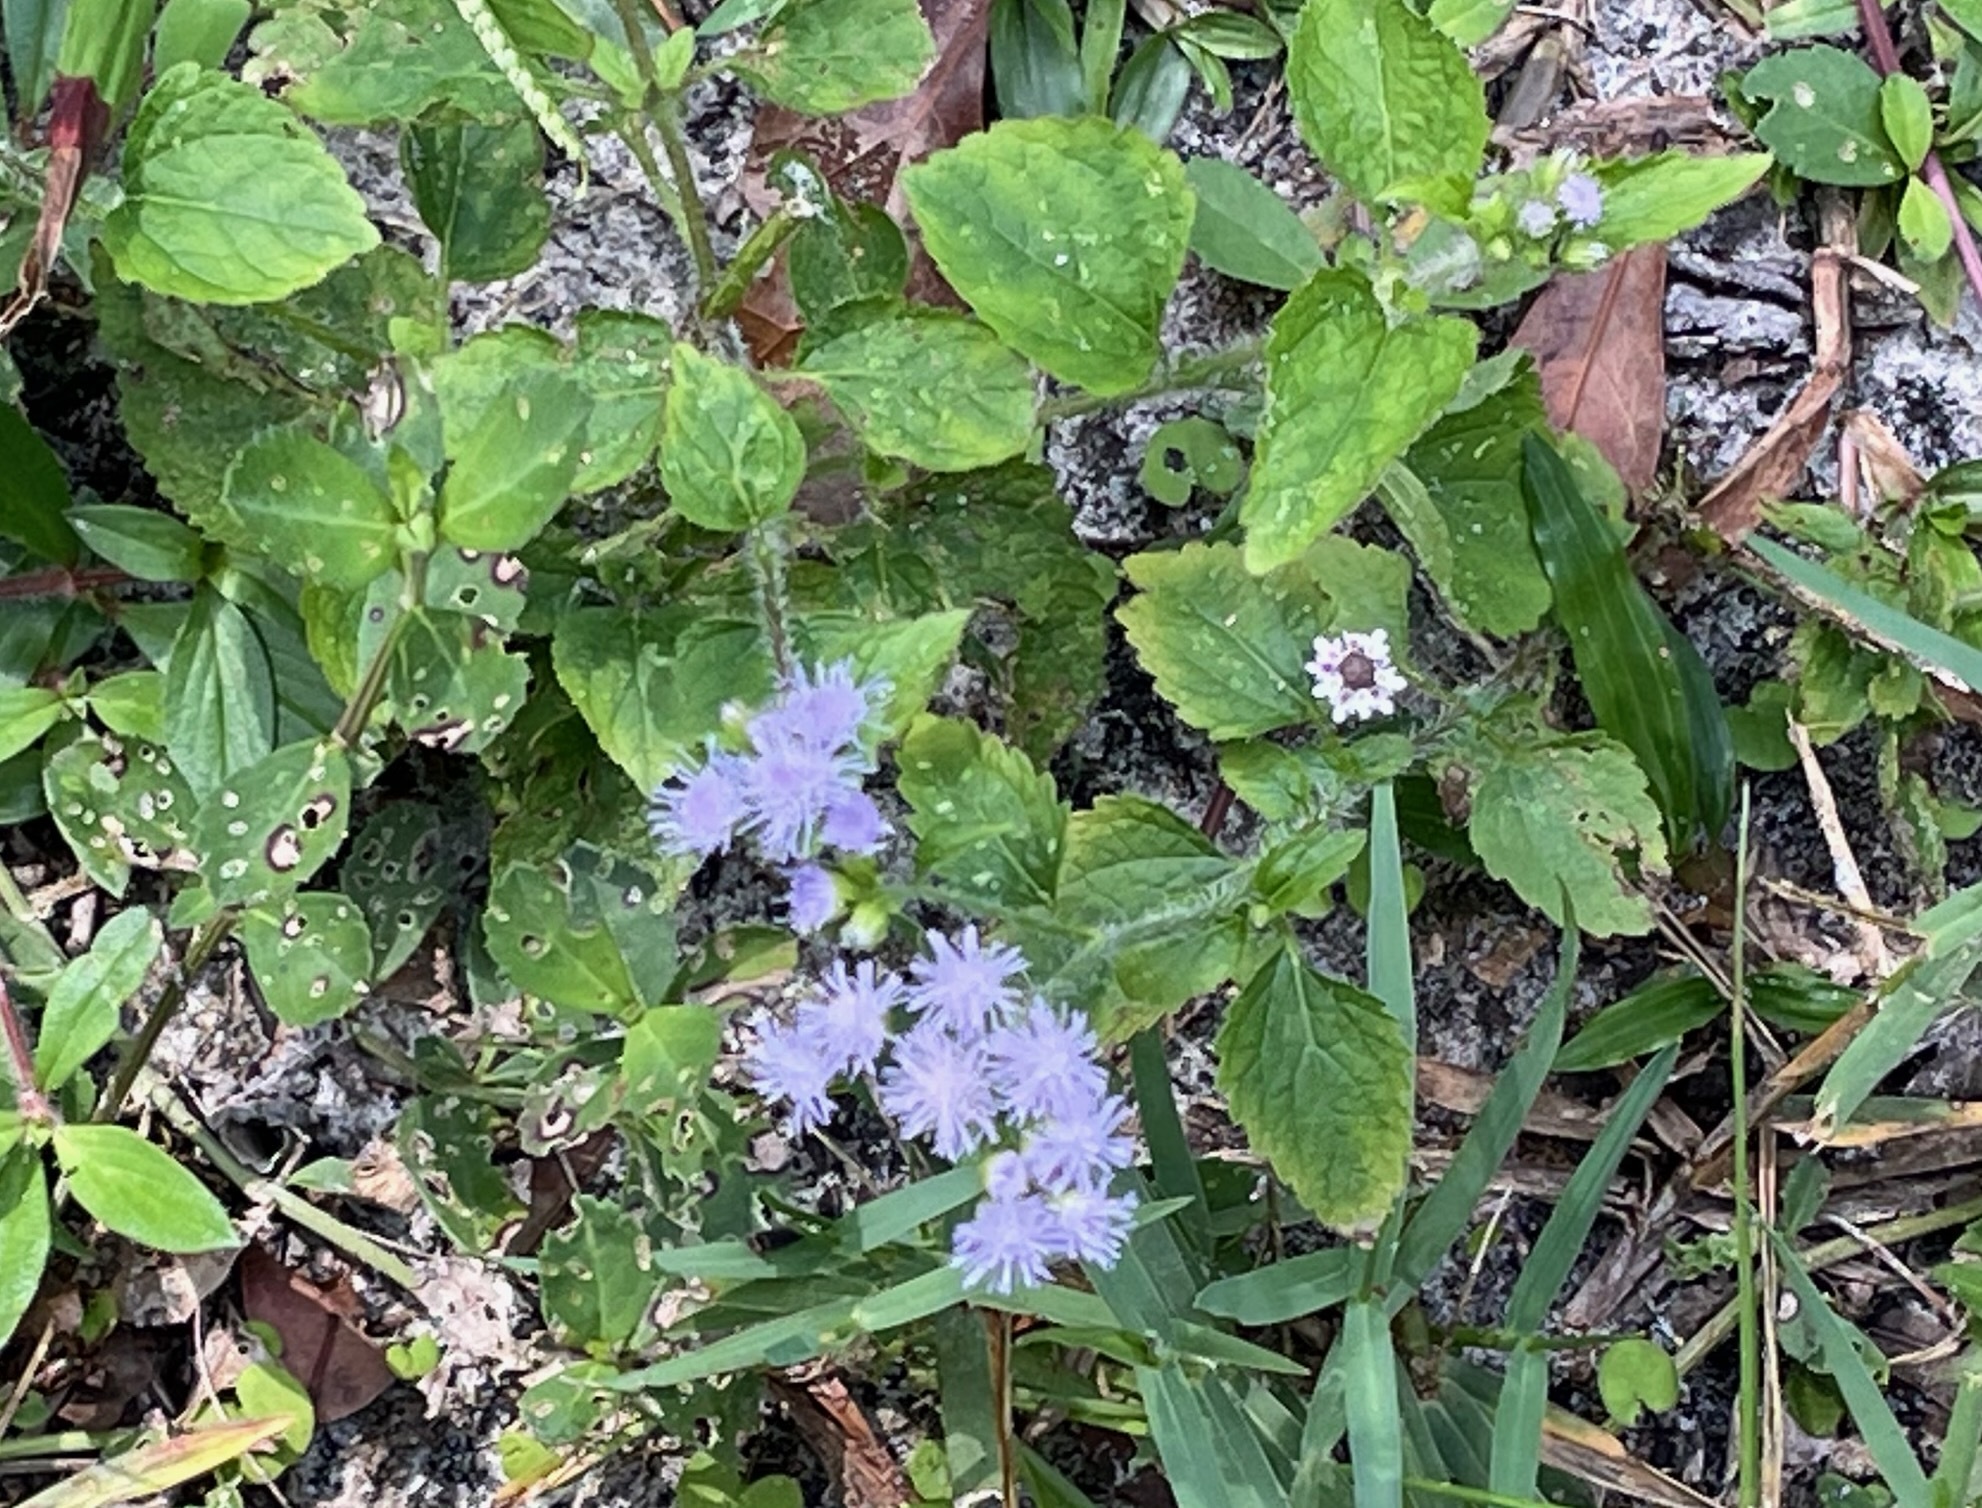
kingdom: Plantae
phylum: Tracheophyta
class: Magnoliopsida
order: Asterales
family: Asteraceae
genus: Ageratum
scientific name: Ageratum houstonianum
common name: Bluemink
